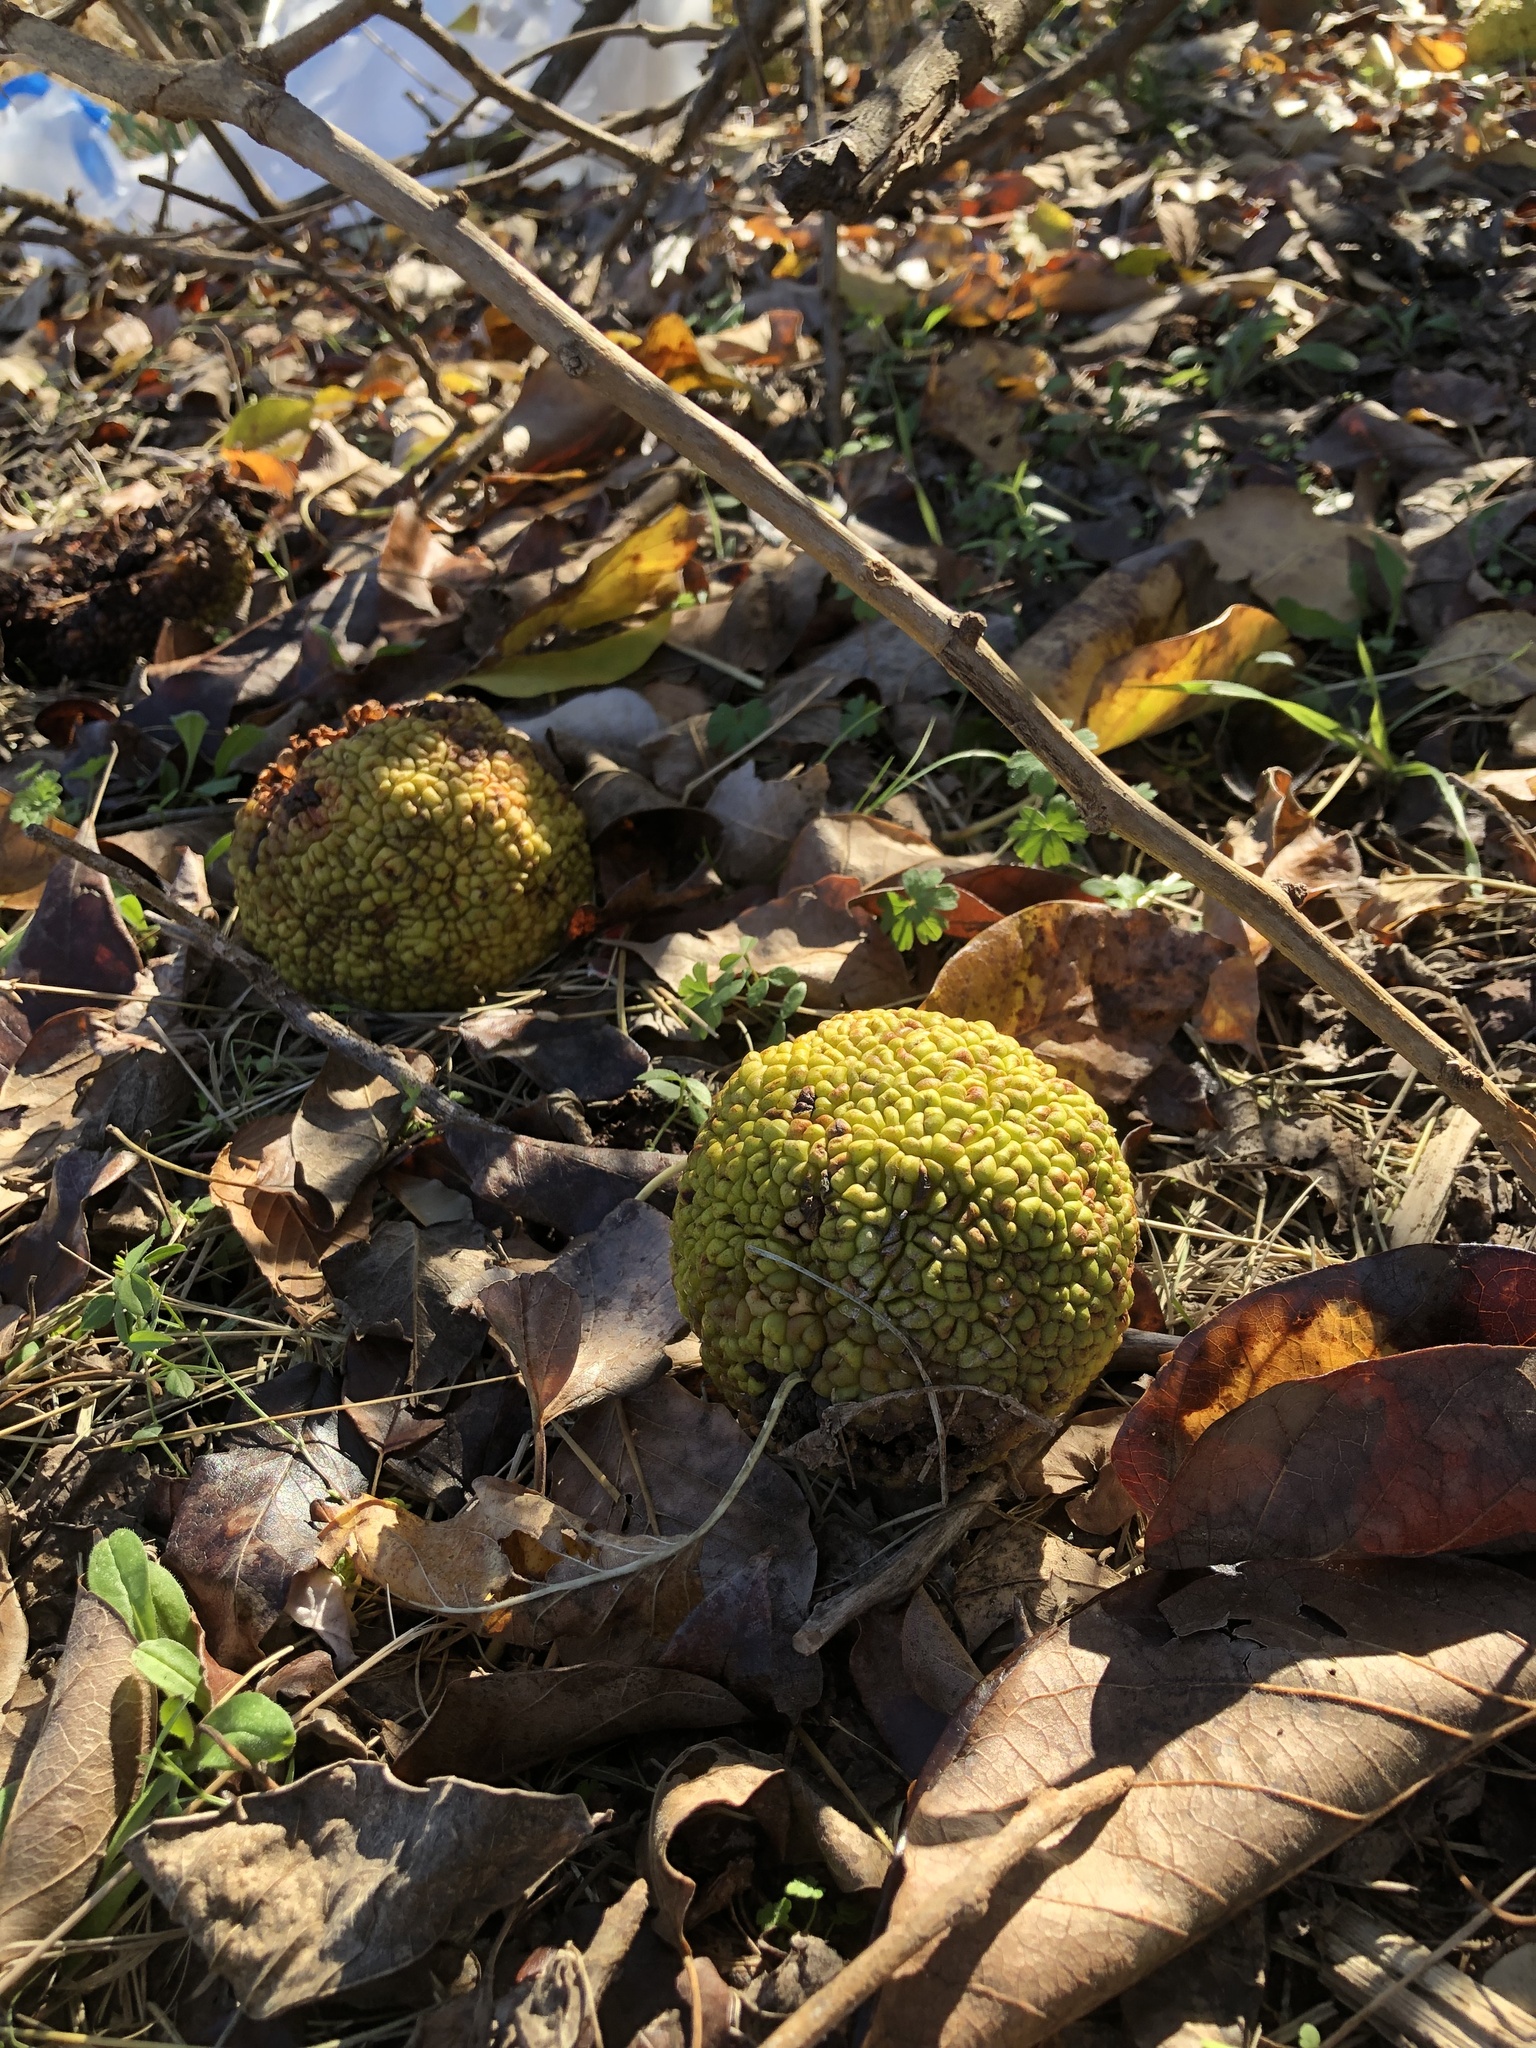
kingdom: Plantae
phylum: Tracheophyta
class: Magnoliopsida
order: Rosales
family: Moraceae
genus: Maclura
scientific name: Maclura pomifera
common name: Osage-orange
